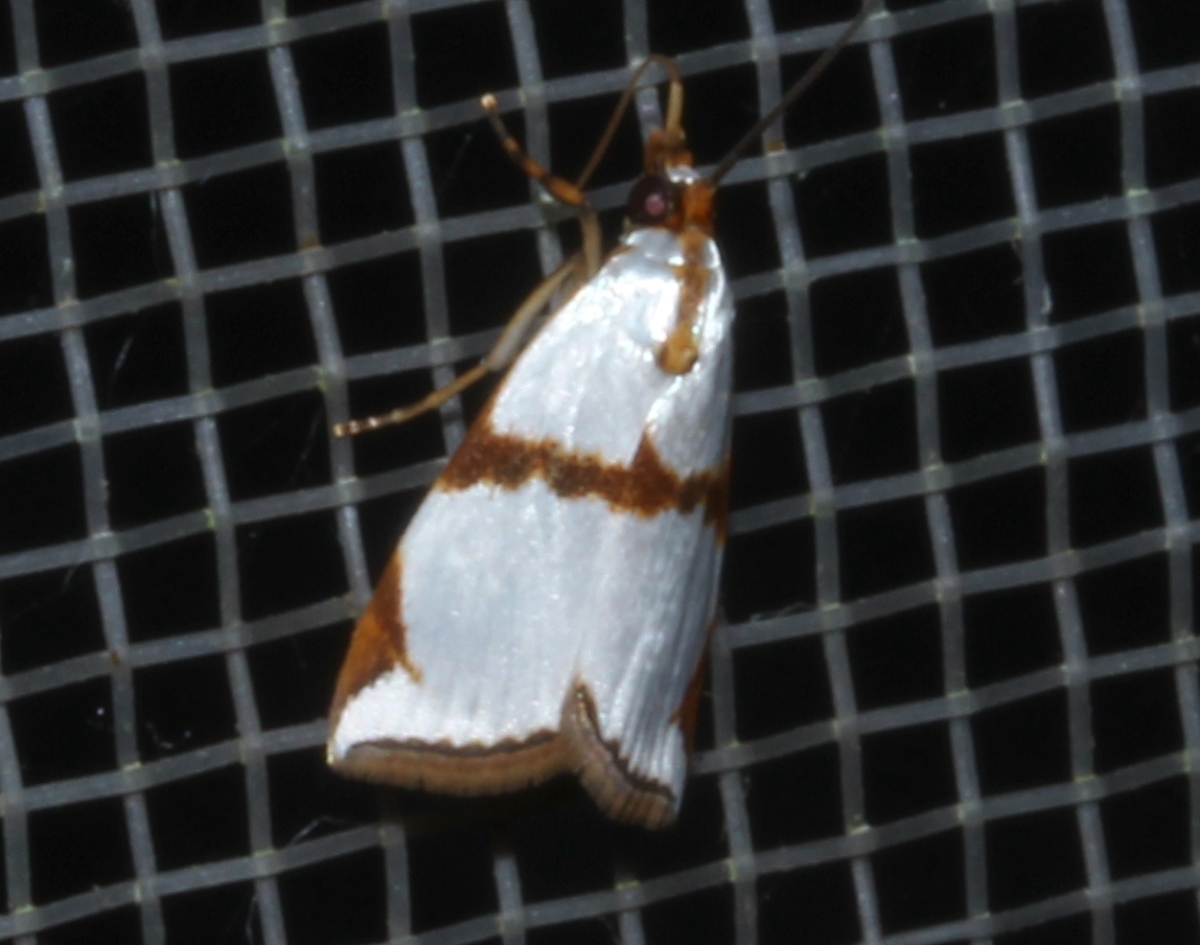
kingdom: Animalia
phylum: Arthropoda
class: Insecta
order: Lepidoptera
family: Crambidae
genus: Argyria
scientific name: Argyria croceivittella
